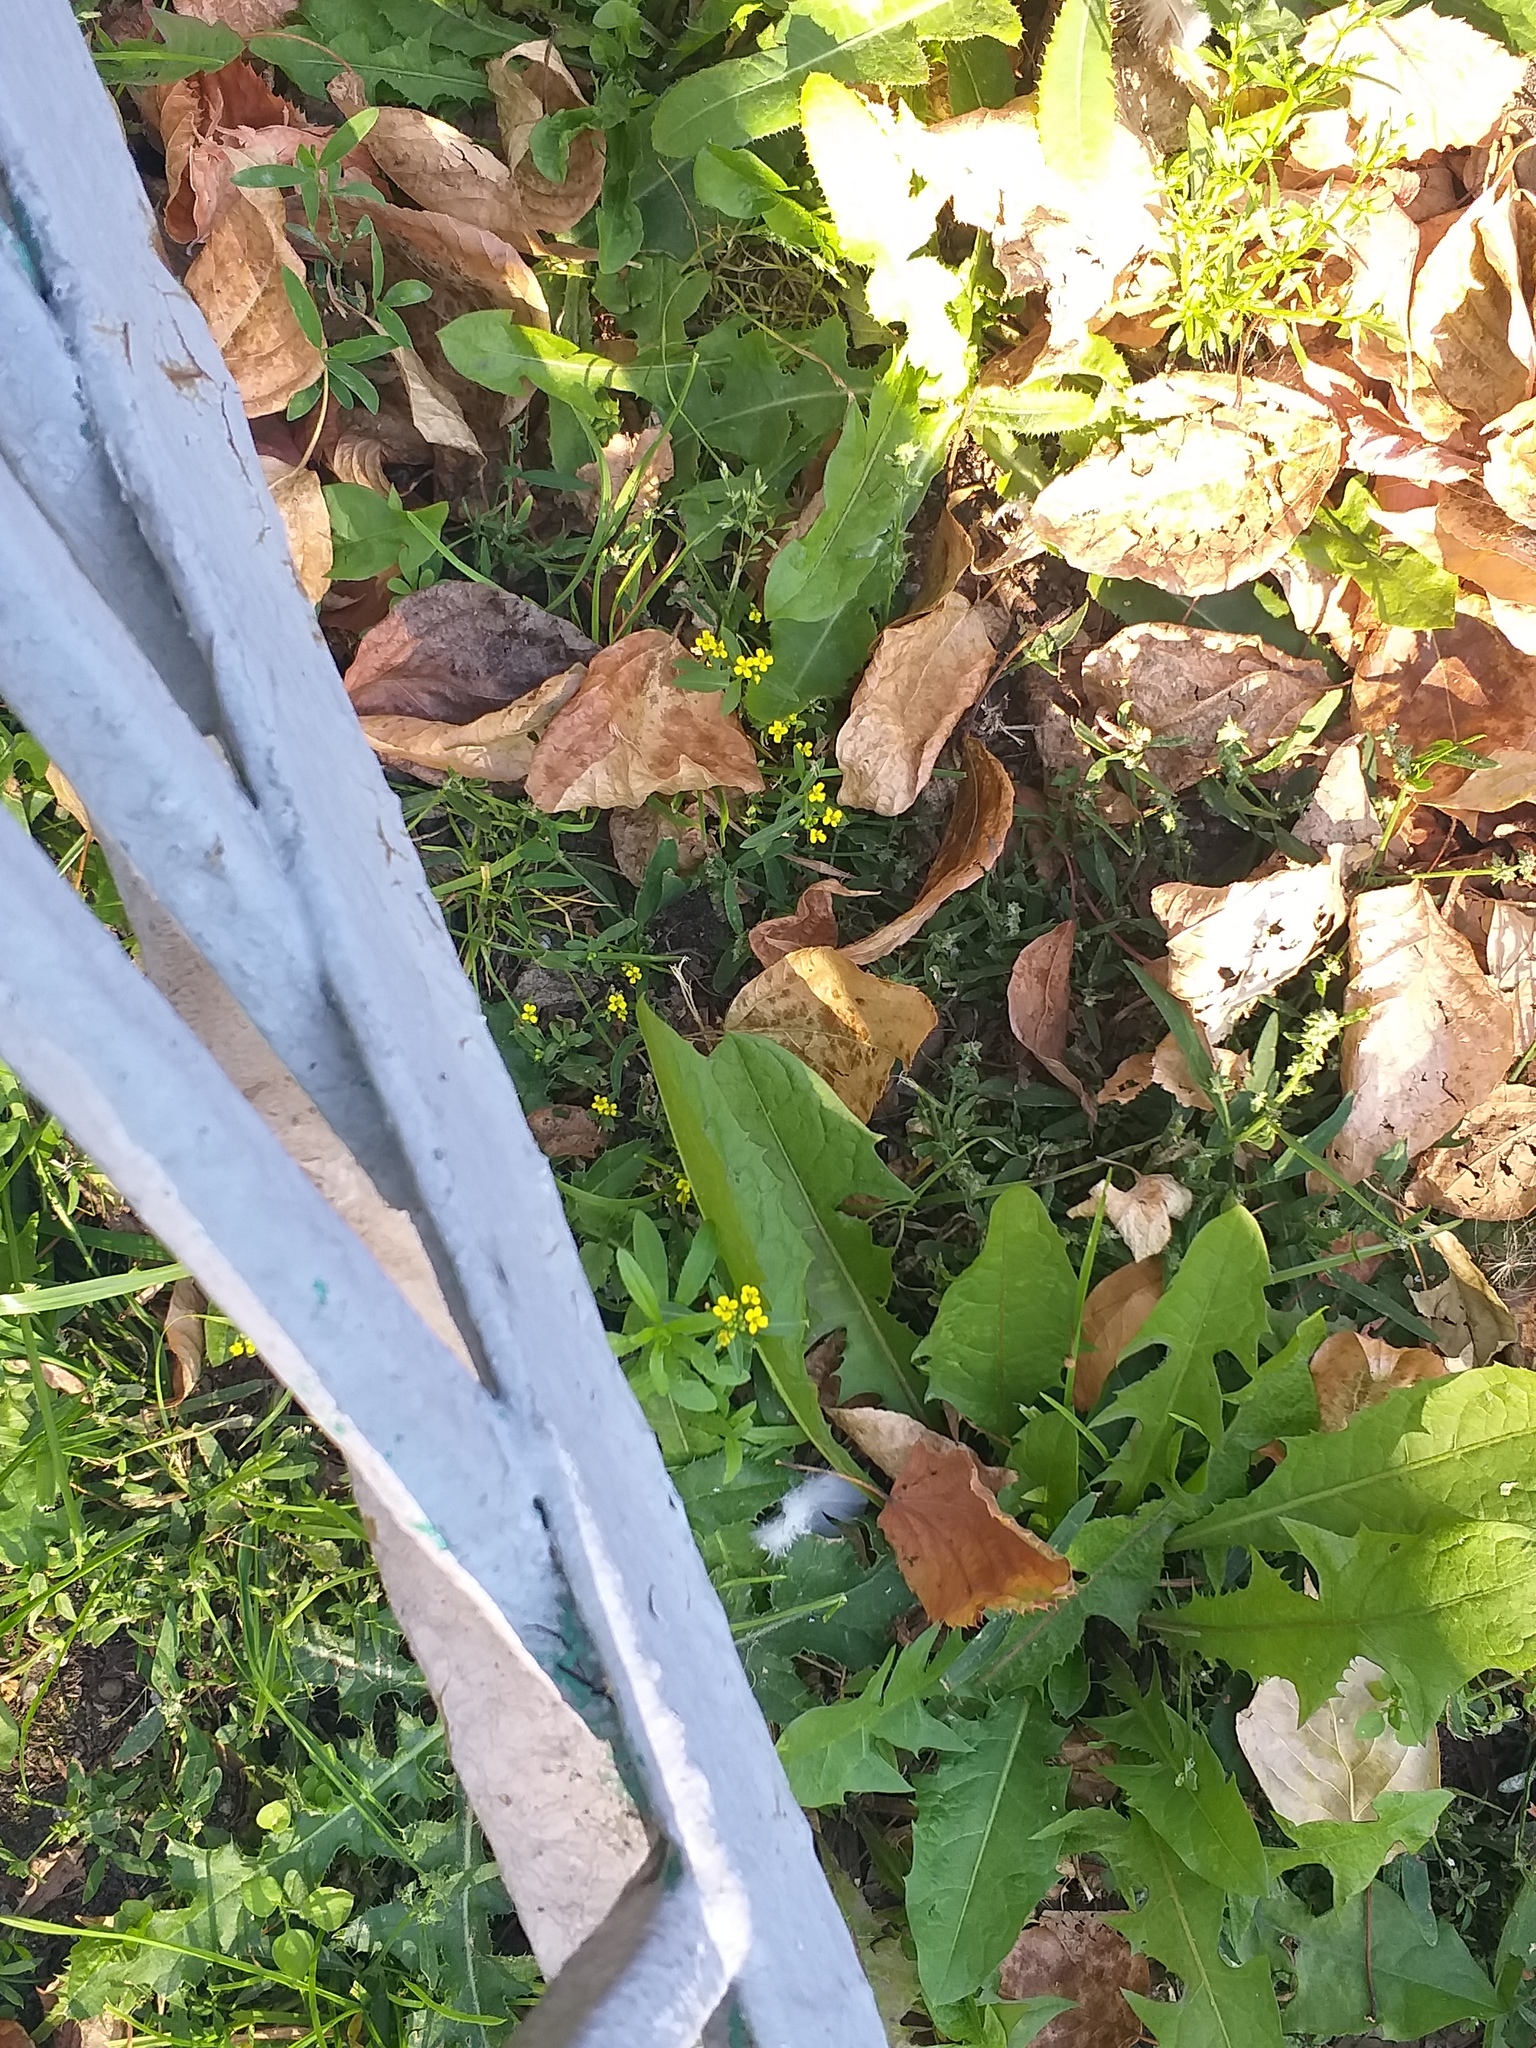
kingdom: Plantae
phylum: Tracheophyta
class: Magnoliopsida
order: Brassicales
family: Brassicaceae
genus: Erysimum
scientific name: Erysimum cheiranthoides
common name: Treacle mustard
